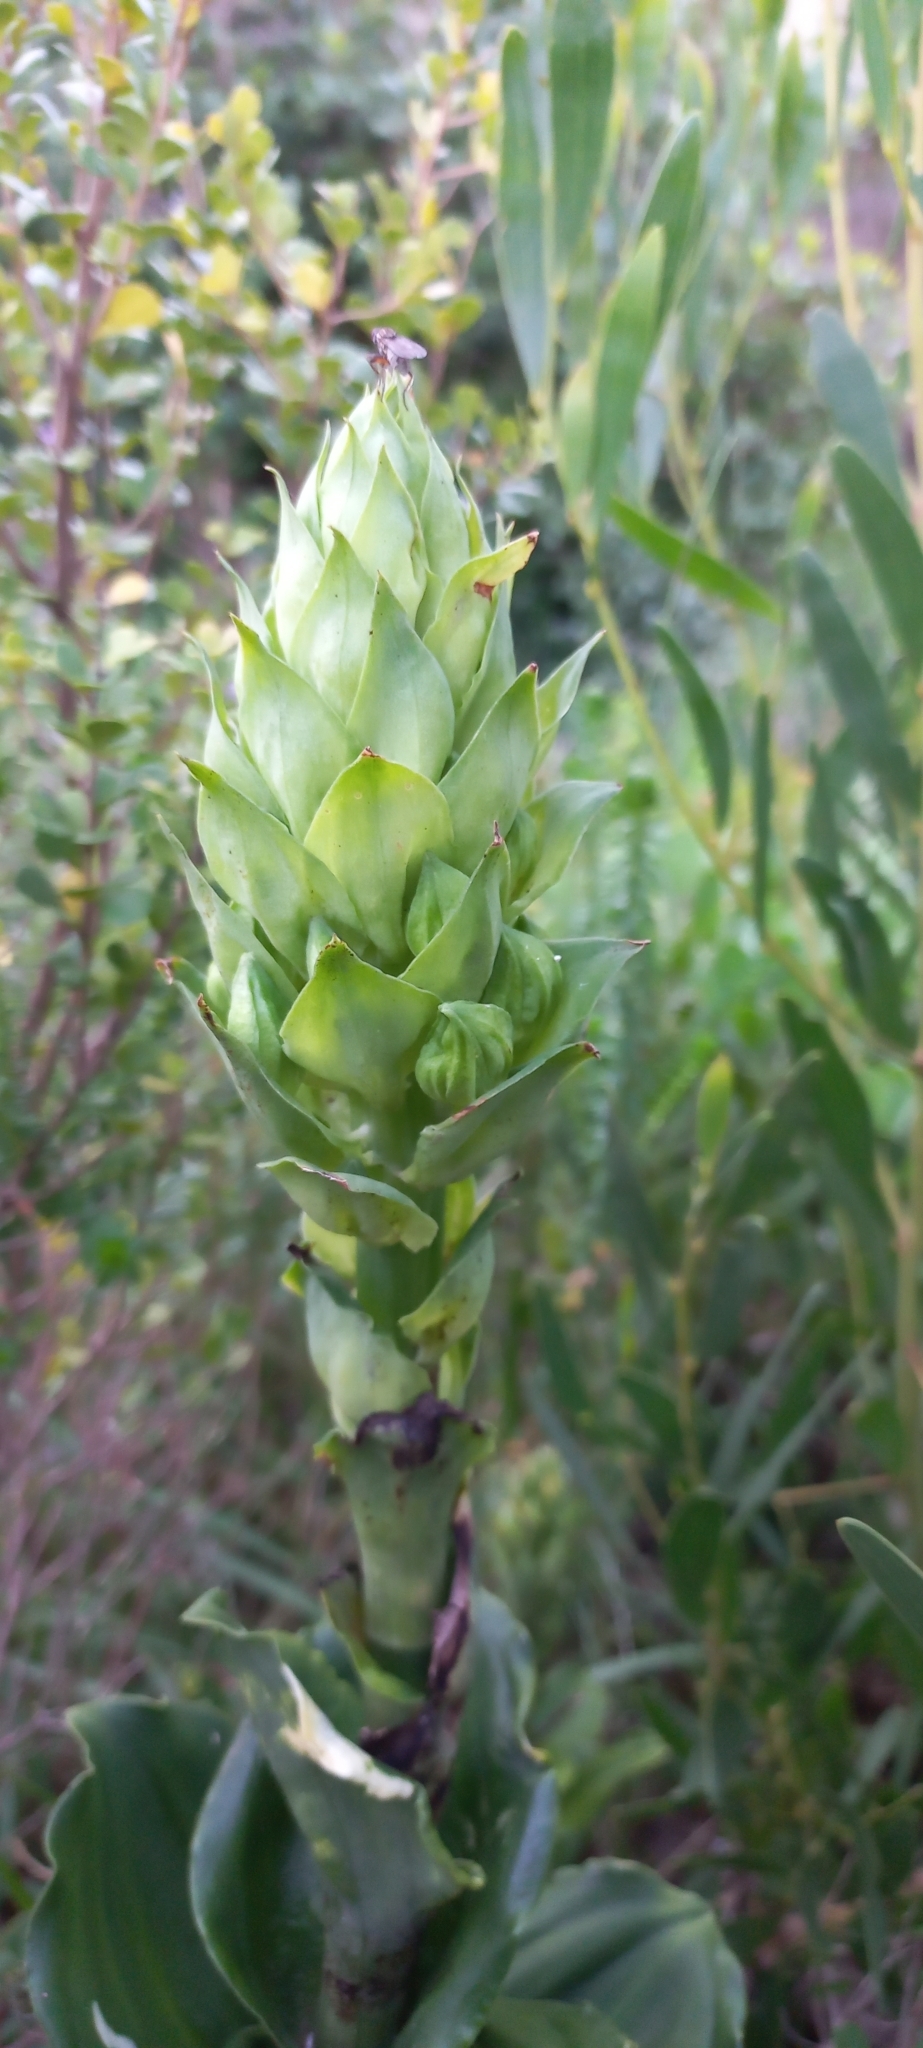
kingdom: Plantae
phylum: Tracheophyta
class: Liliopsida
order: Asparagales
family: Orchidaceae
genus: Bonatea
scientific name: Bonatea speciosa
